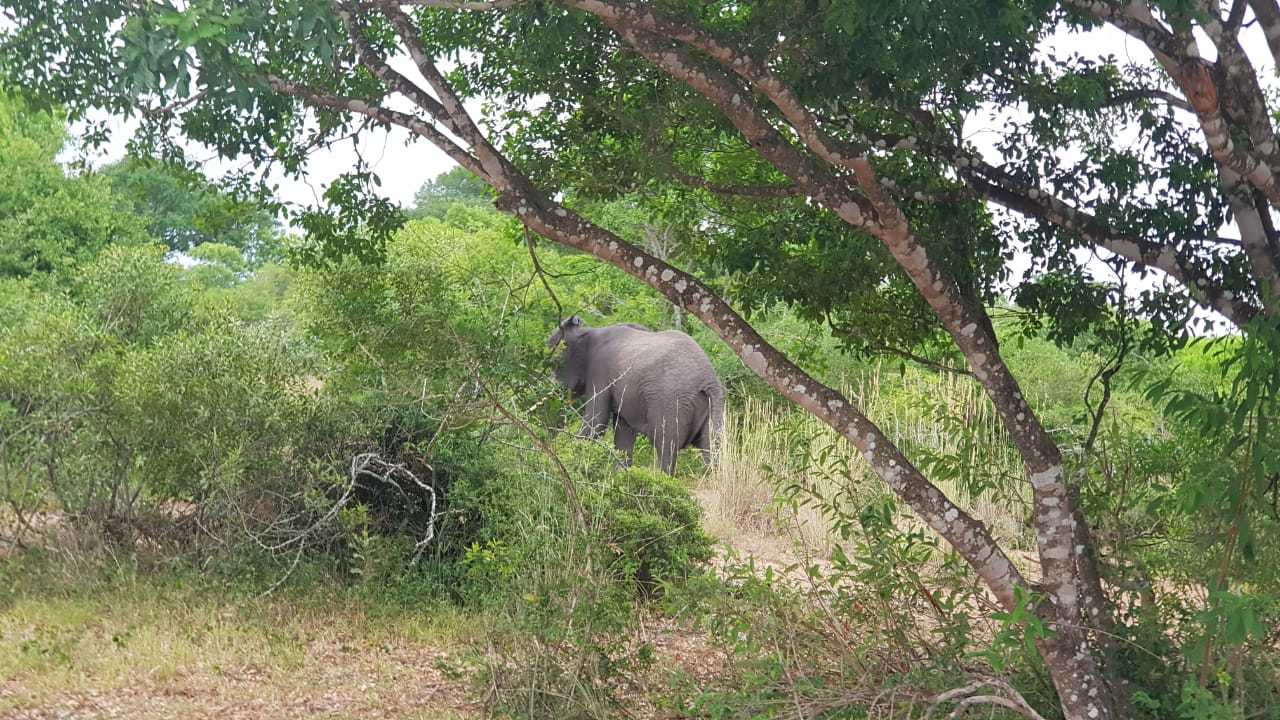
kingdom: Animalia
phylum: Chordata
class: Mammalia
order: Proboscidea
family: Elephantidae
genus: Loxodonta
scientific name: Loxodonta africana
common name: African elephant
